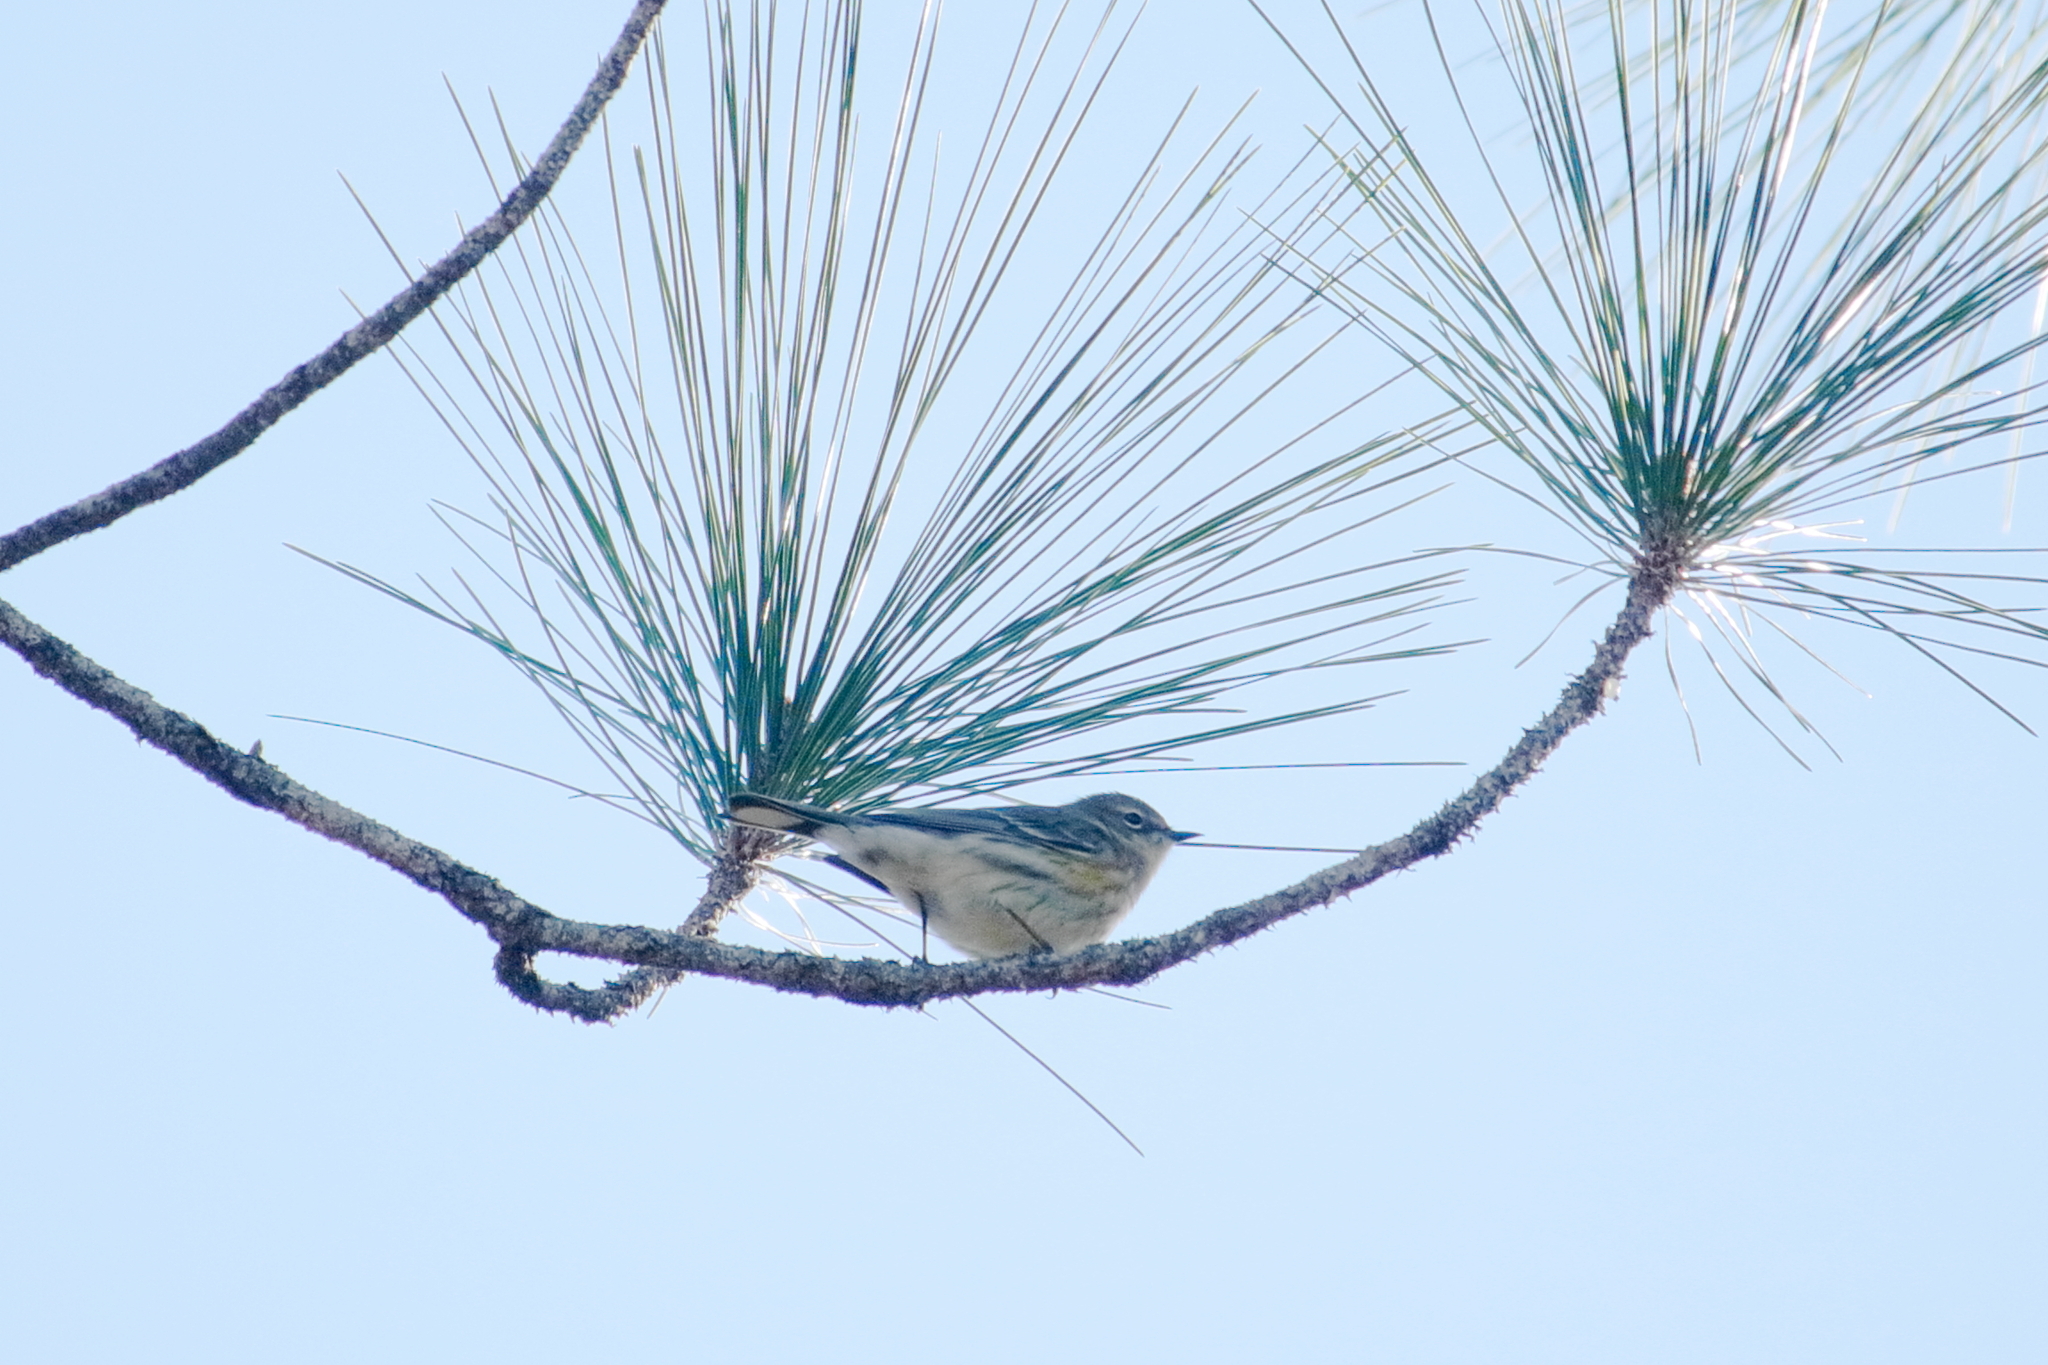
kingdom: Animalia
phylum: Chordata
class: Aves
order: Passeriformes
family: Parulidae
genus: Setophaga
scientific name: Setophaga coronata
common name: Myrtle warbler
